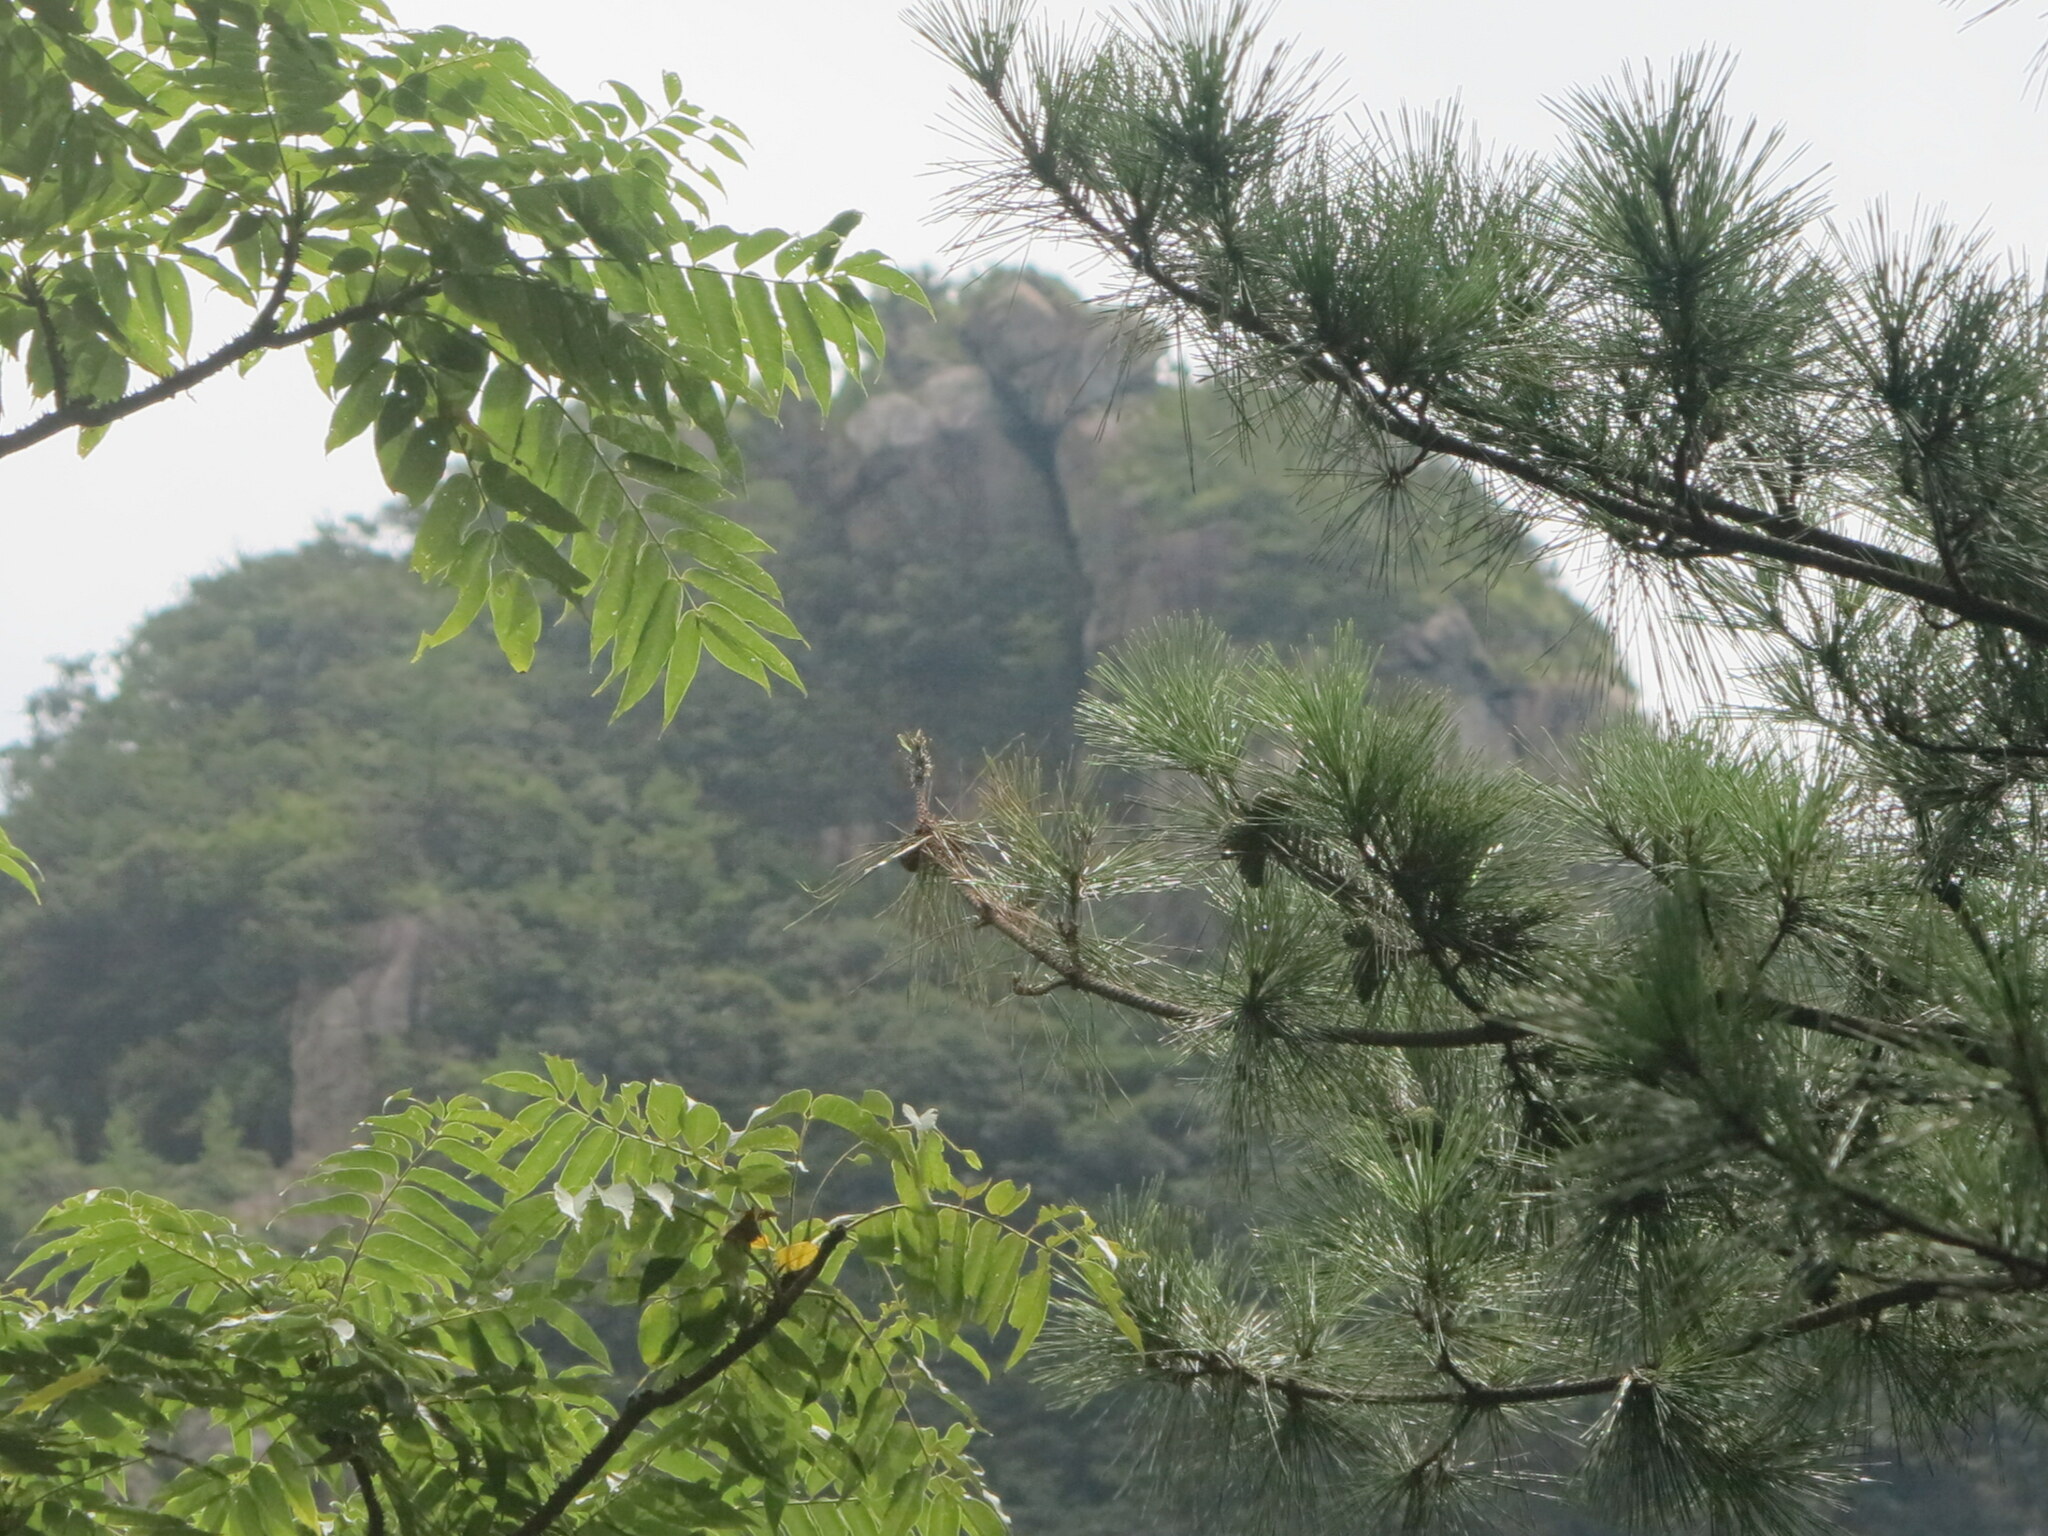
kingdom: Plantae
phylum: Tracheophyta
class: Magnoliopsida
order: Sapindales
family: Anacardiaceae
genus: Toxicodendron
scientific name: Toxicodendron succedaneum
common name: Wax tree
